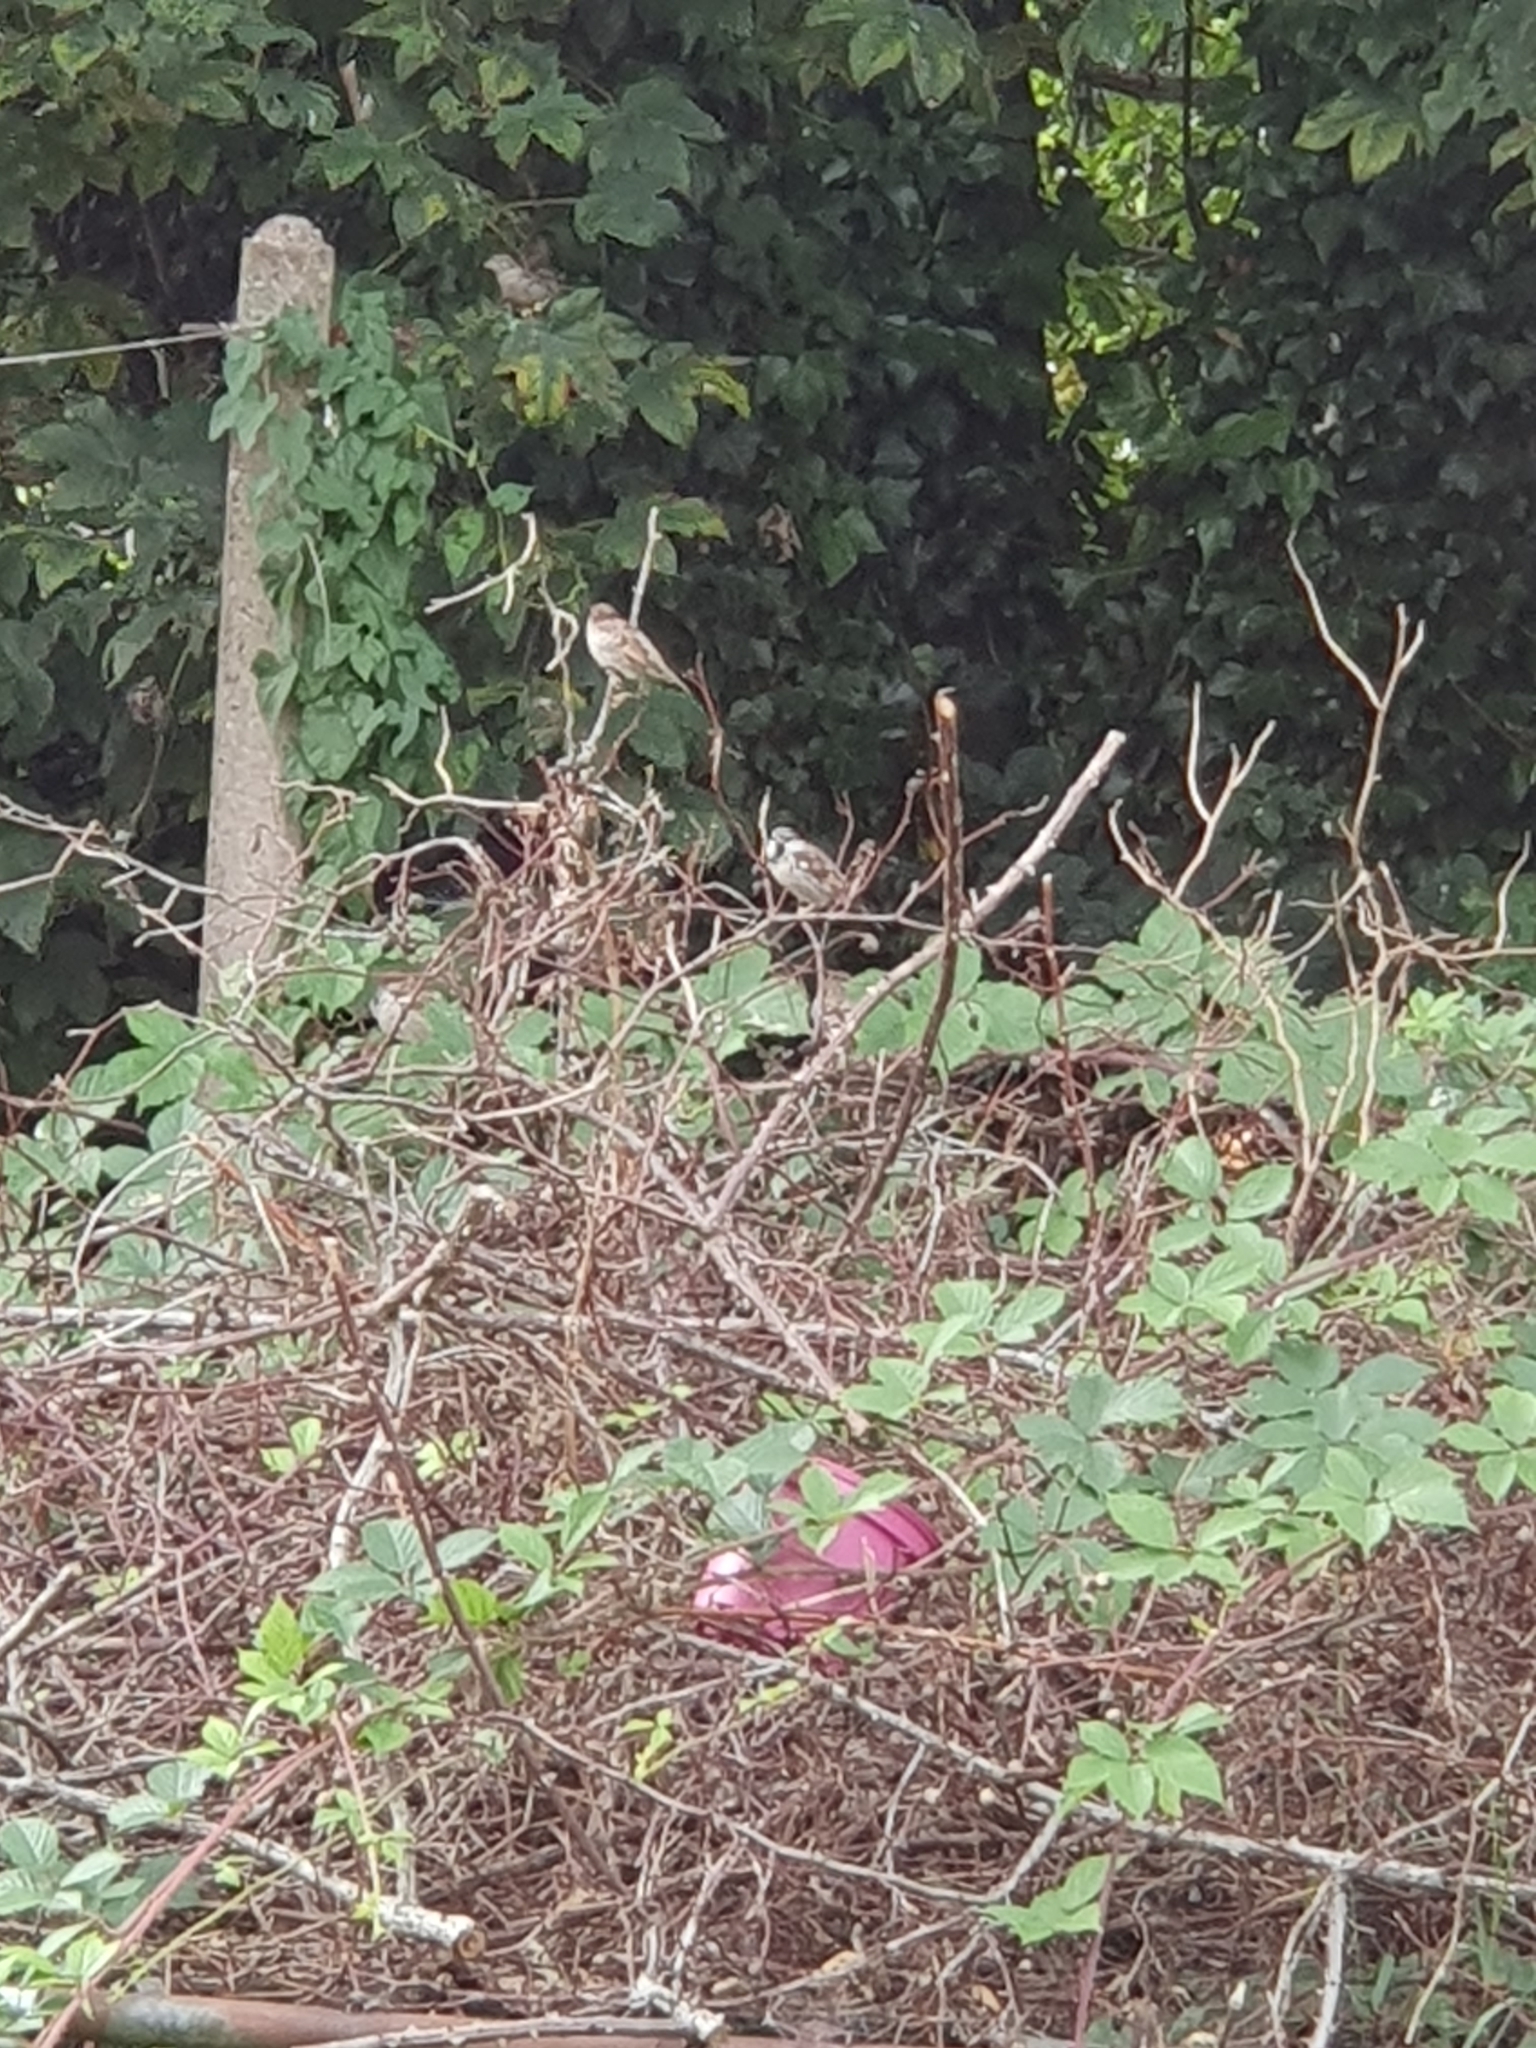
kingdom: Animalia
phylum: Chordata
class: Aves
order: Passeriformes
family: Passeridae
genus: Passer
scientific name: Passer domesticus
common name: House sparrow
